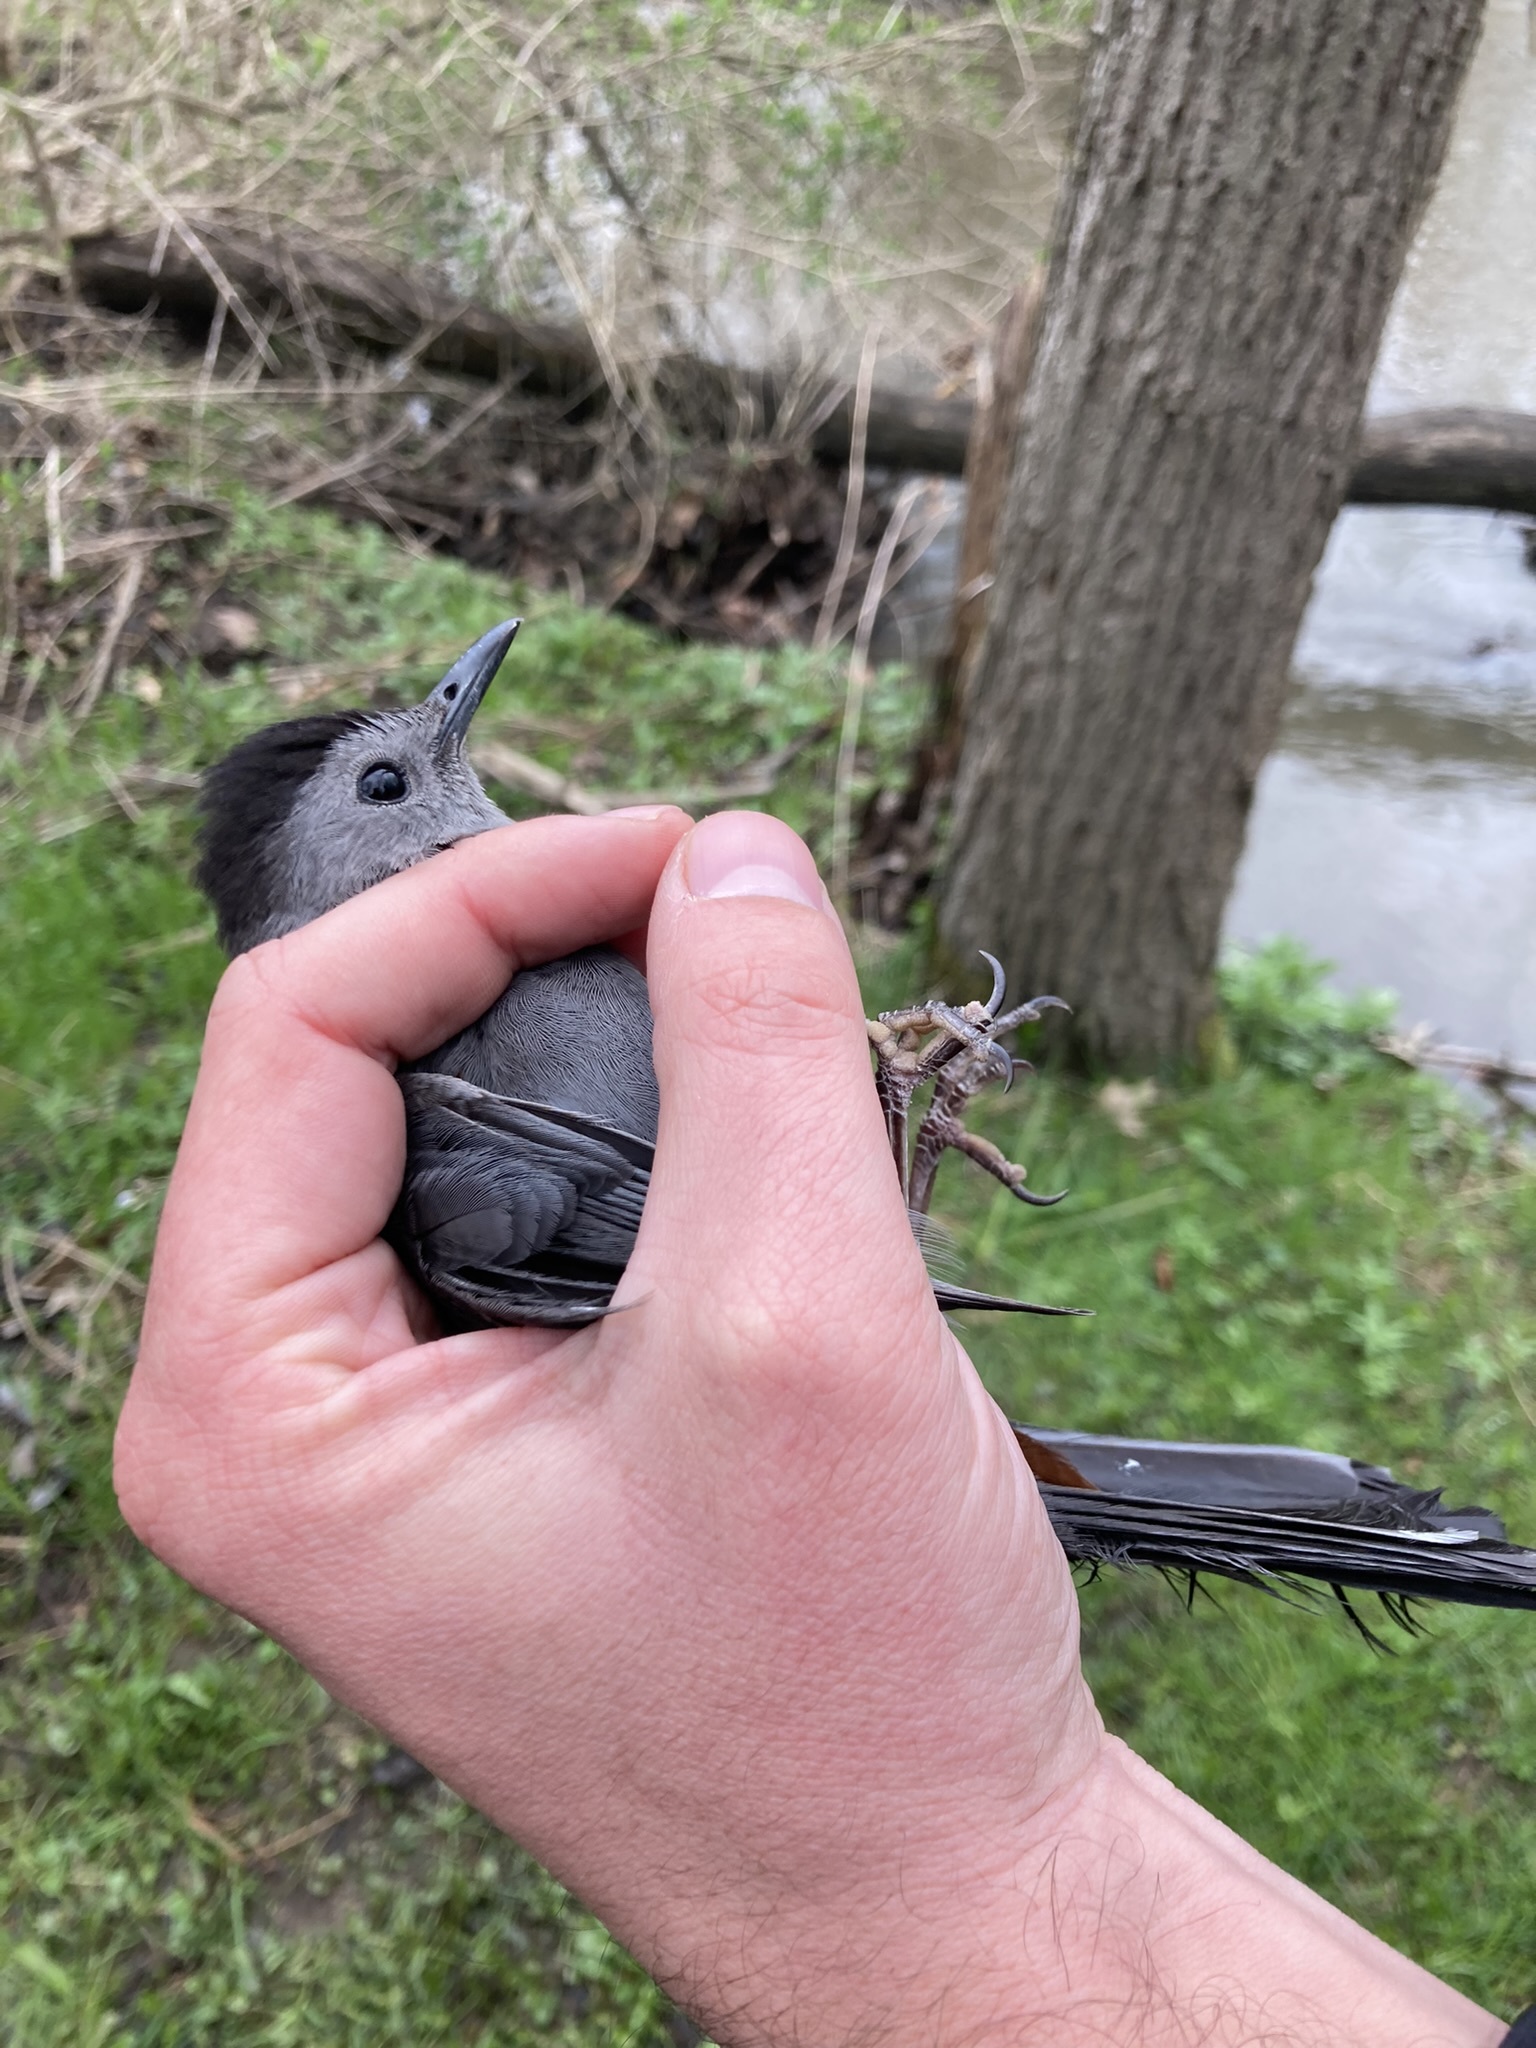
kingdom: Animalia
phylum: Chordata
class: Aves
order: Passeriformes
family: Mimidae
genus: Dumetella
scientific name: Dumetella carolinensis
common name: Gray catbird
